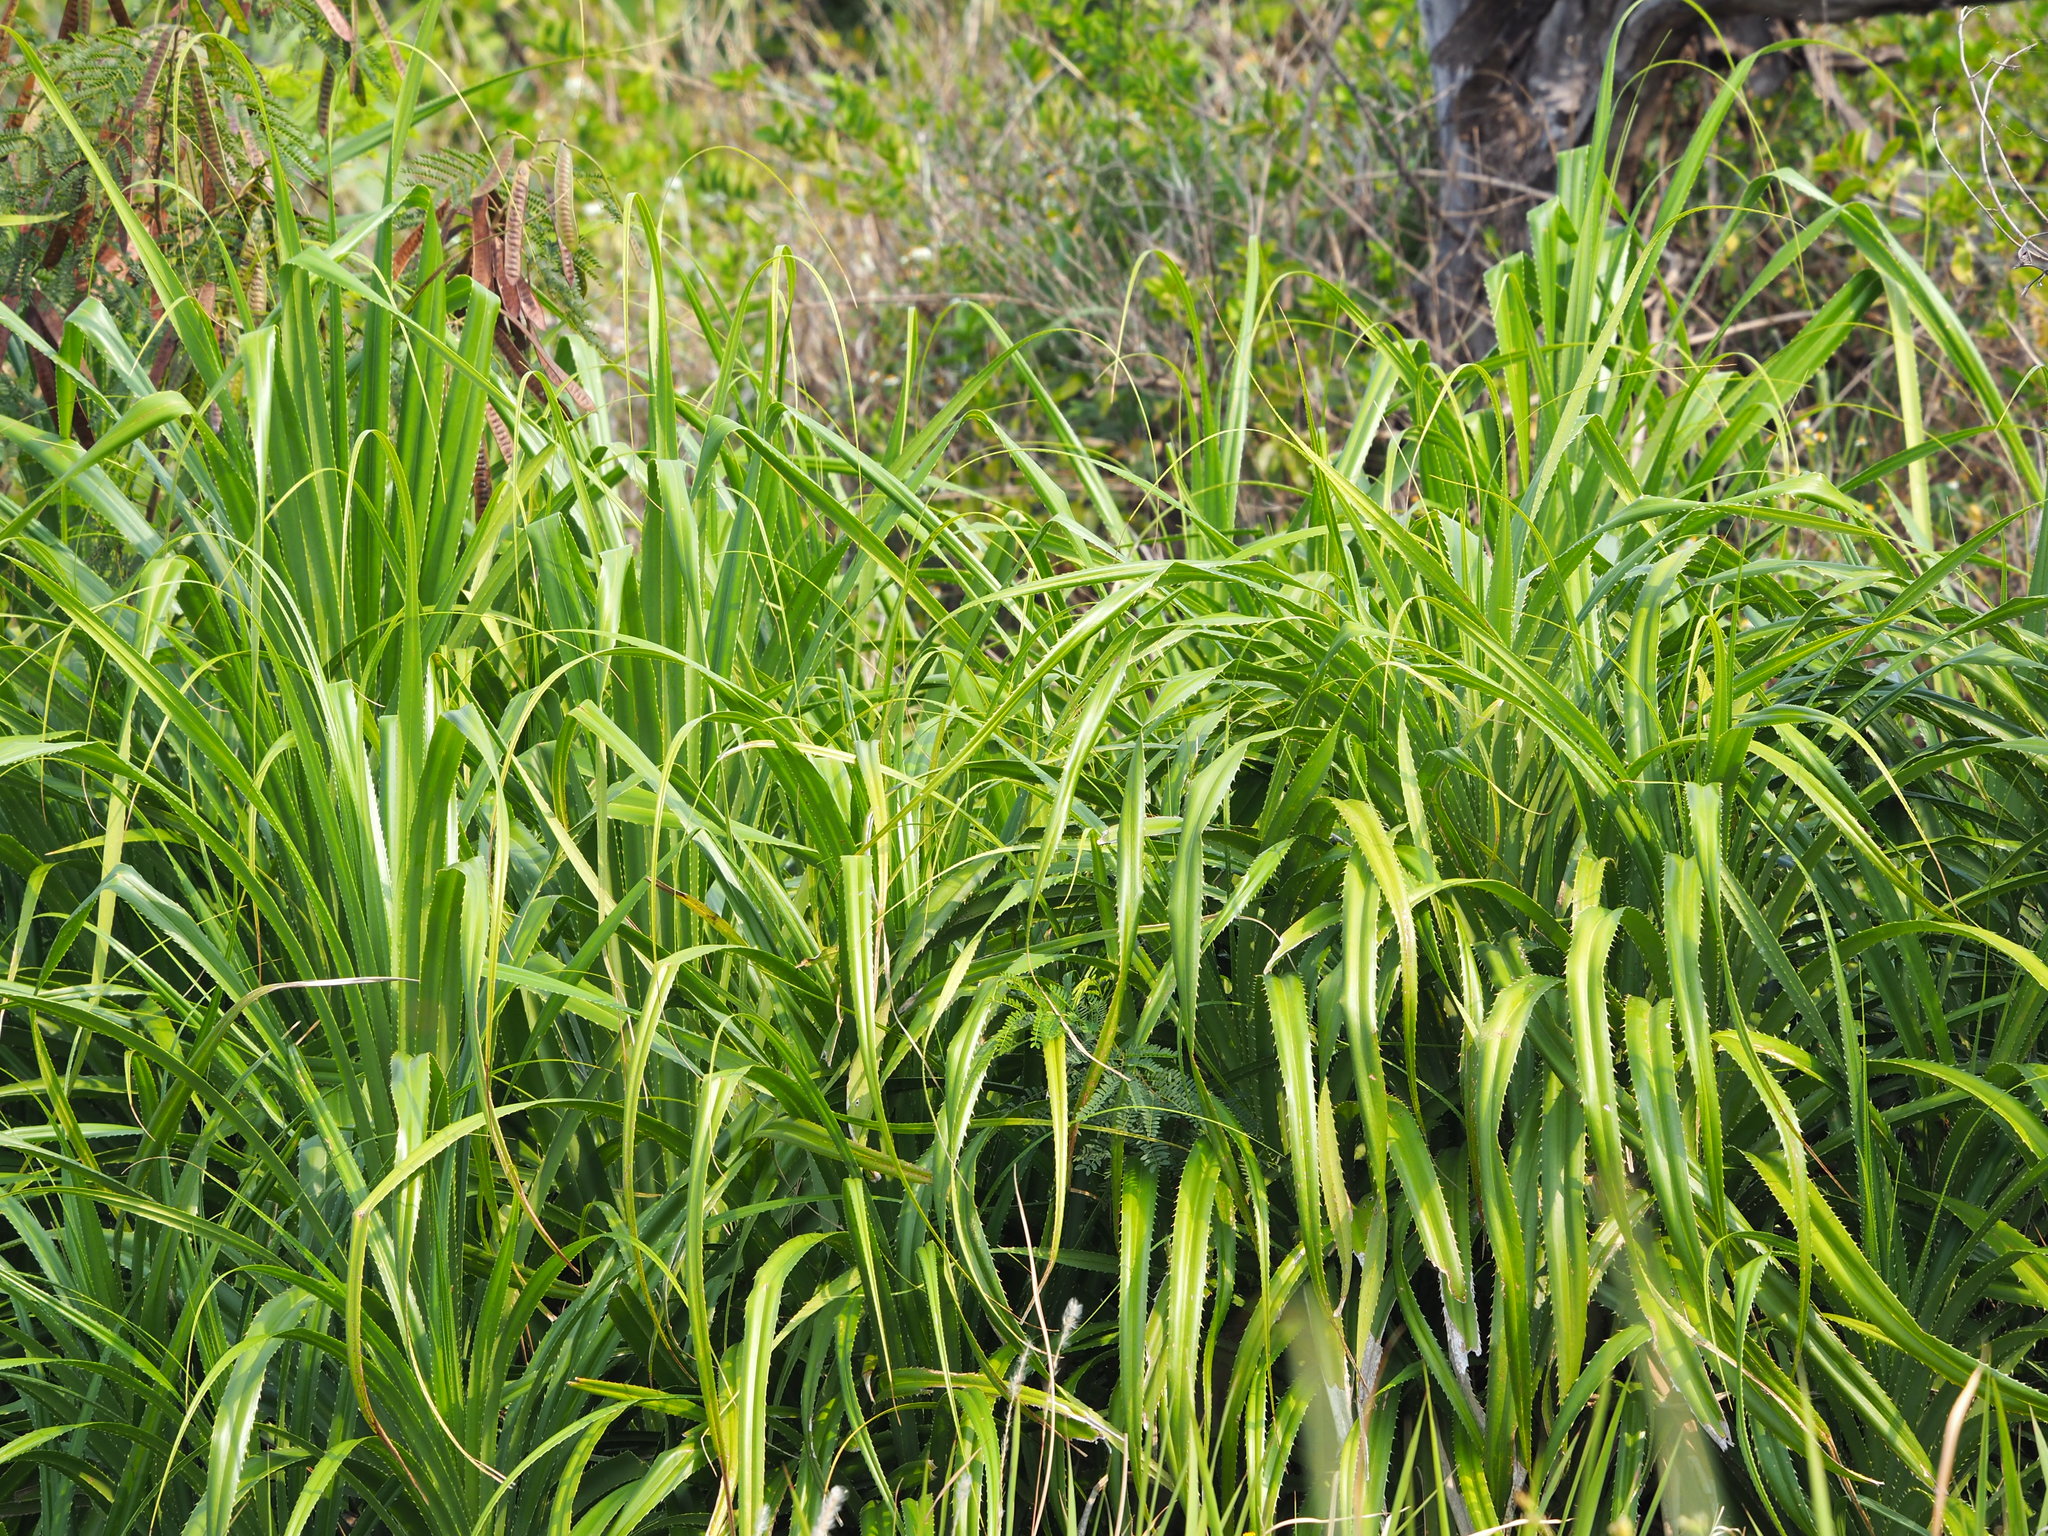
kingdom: Plantae
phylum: Tracheophyta
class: Liliopsida
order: Pandanales
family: Pandanaceae
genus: Pandanus
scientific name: Pandanus odorifer
